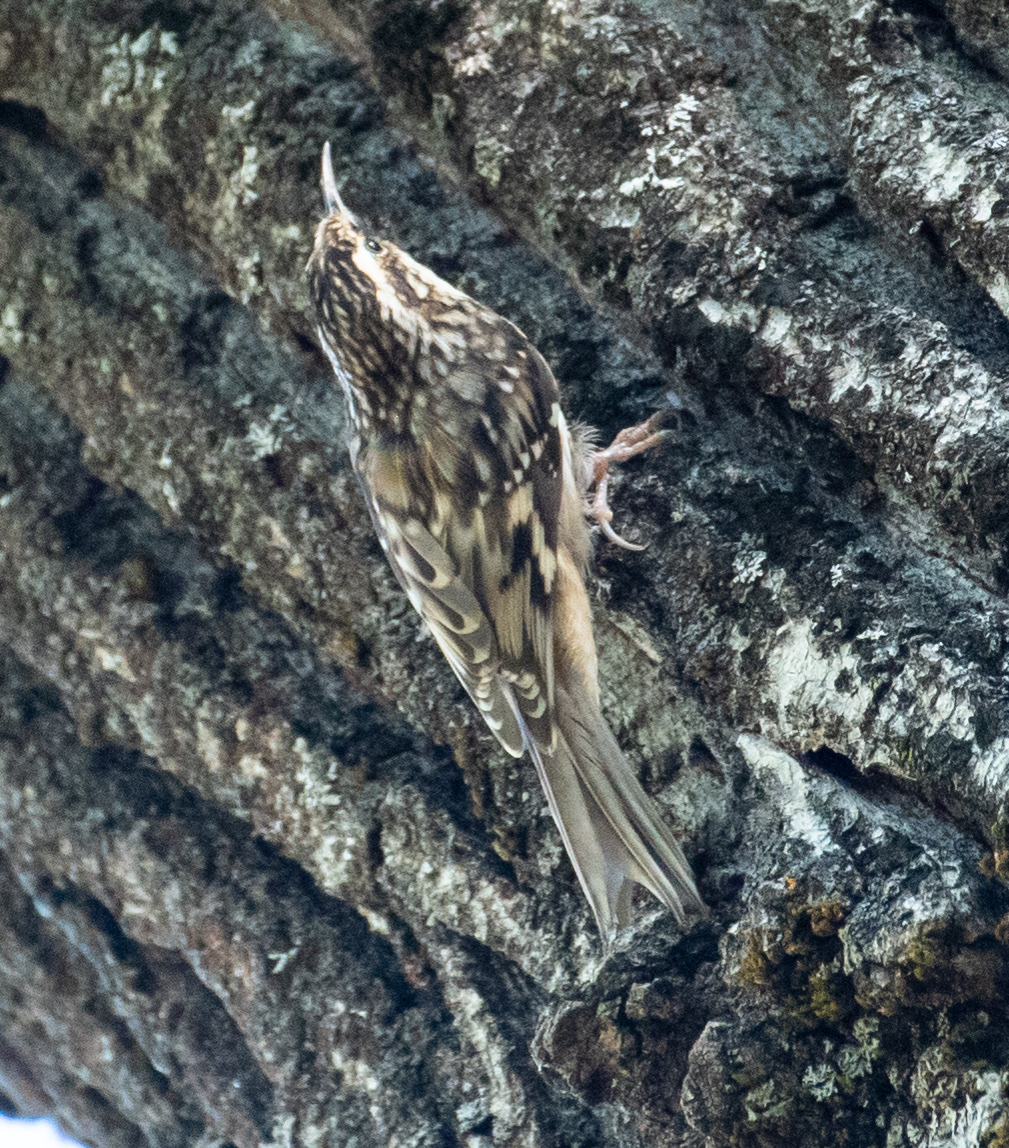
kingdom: Animalia
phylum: Chordata
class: Aves
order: Passeriformes
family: Certhiidae
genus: Certhia
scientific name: Certhia americana
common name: Brown creeper
